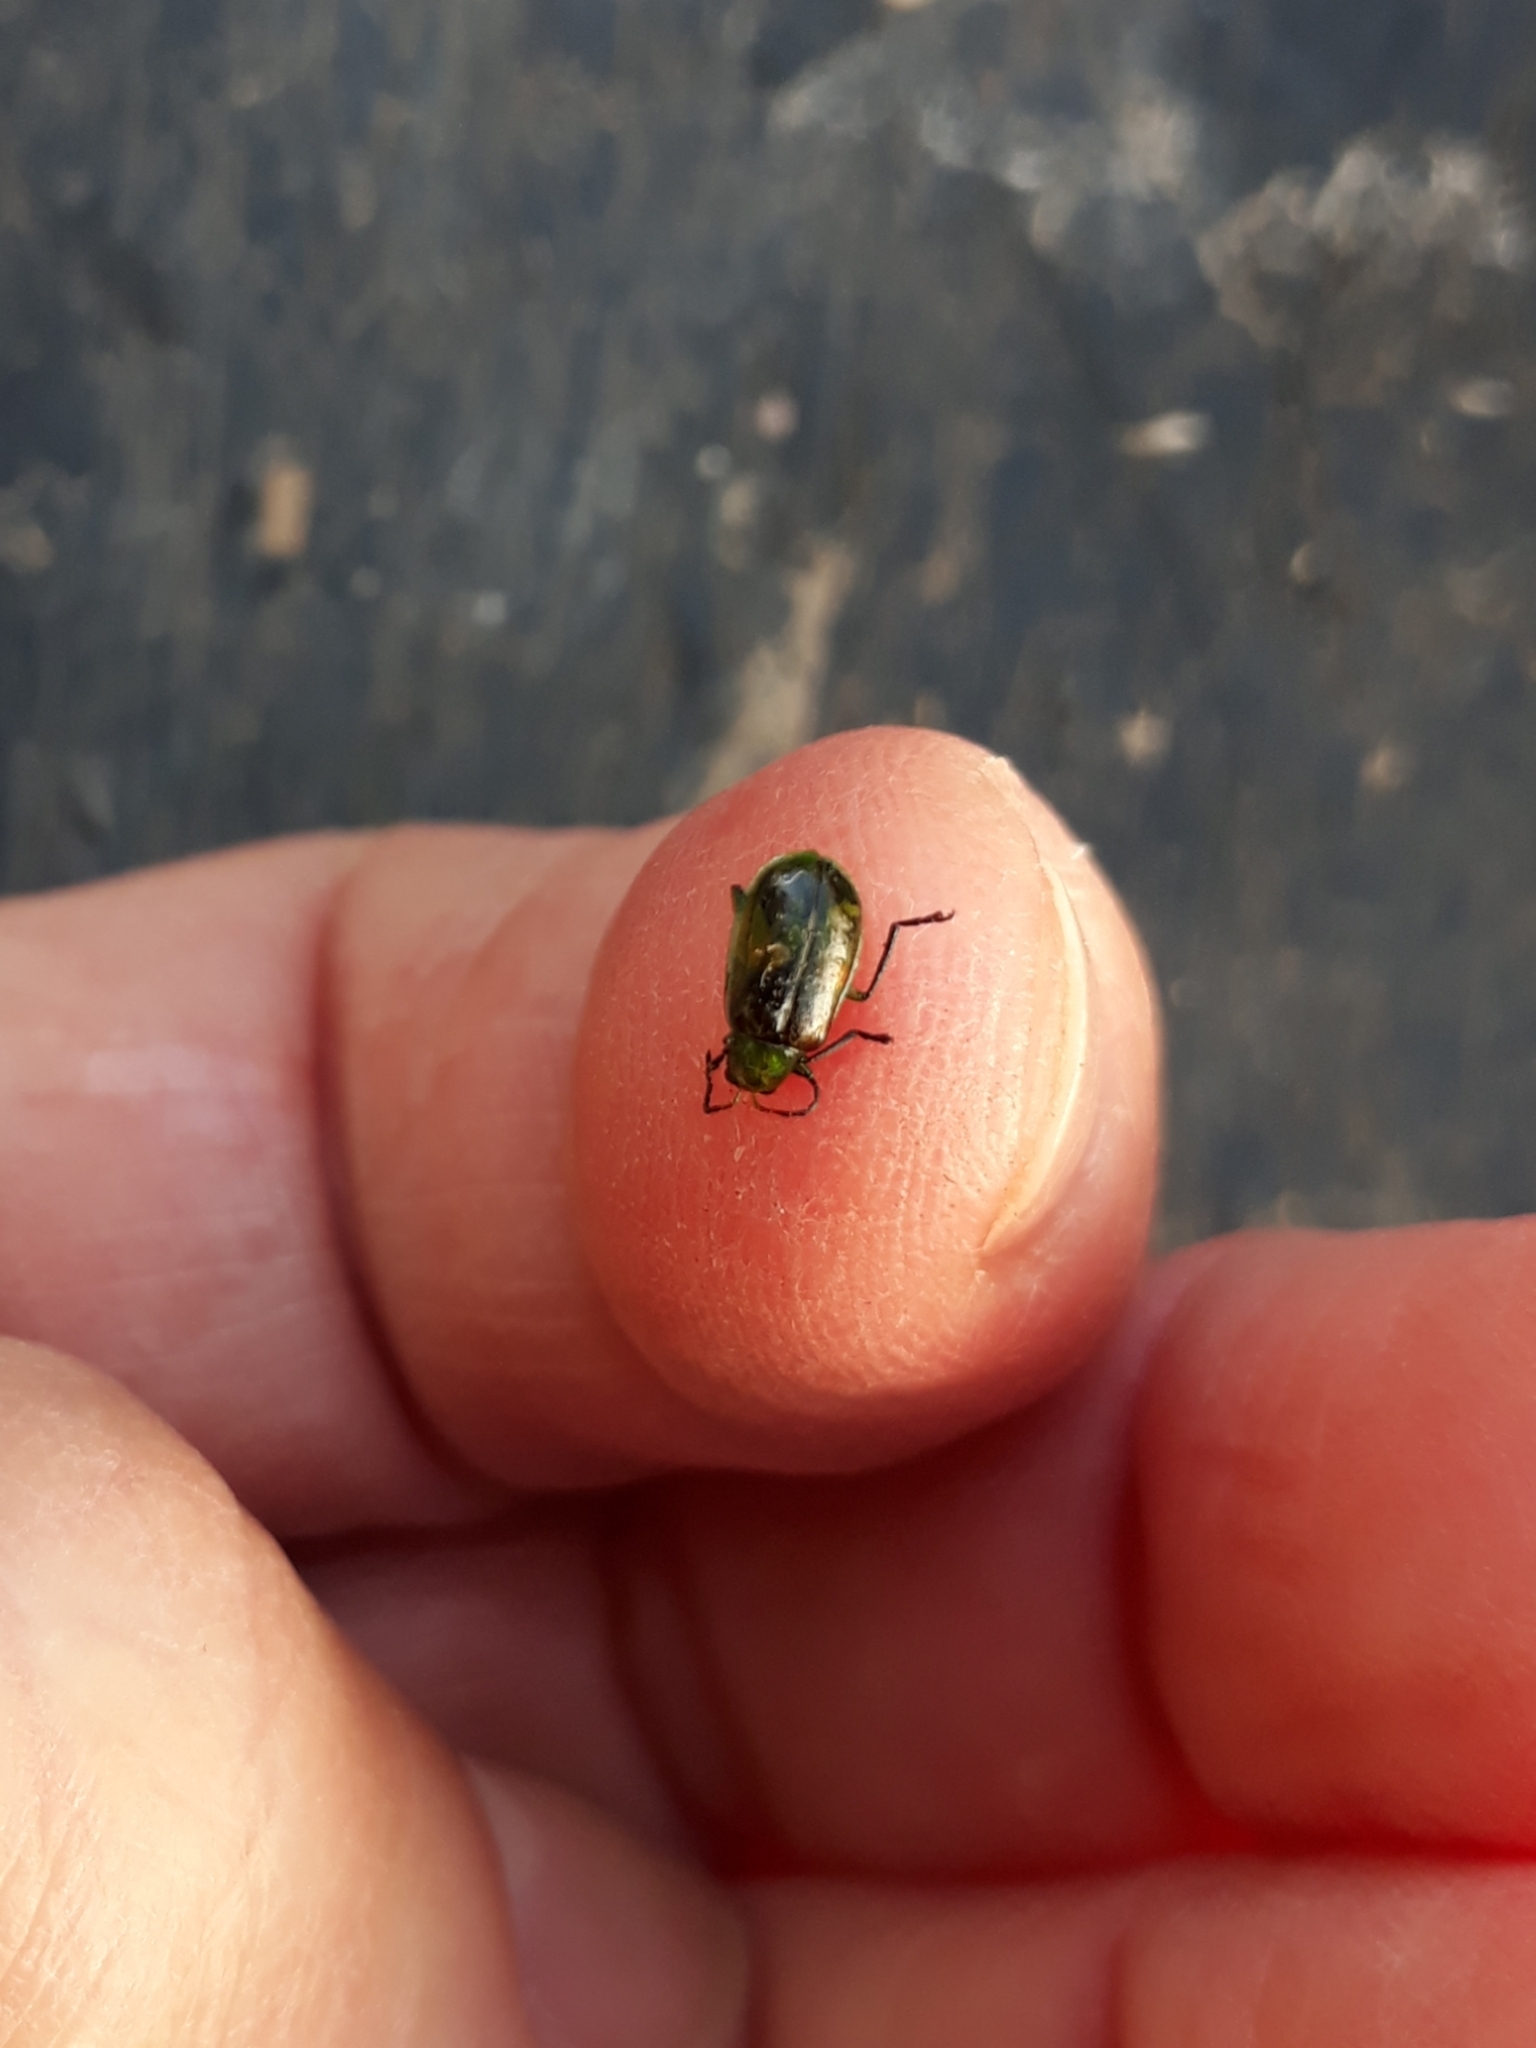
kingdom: Animalia
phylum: Arthropoda
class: Insecta
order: Coleoptera
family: Chrysomelidae
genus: Diabrotica
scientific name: Diabrotica speciosa
